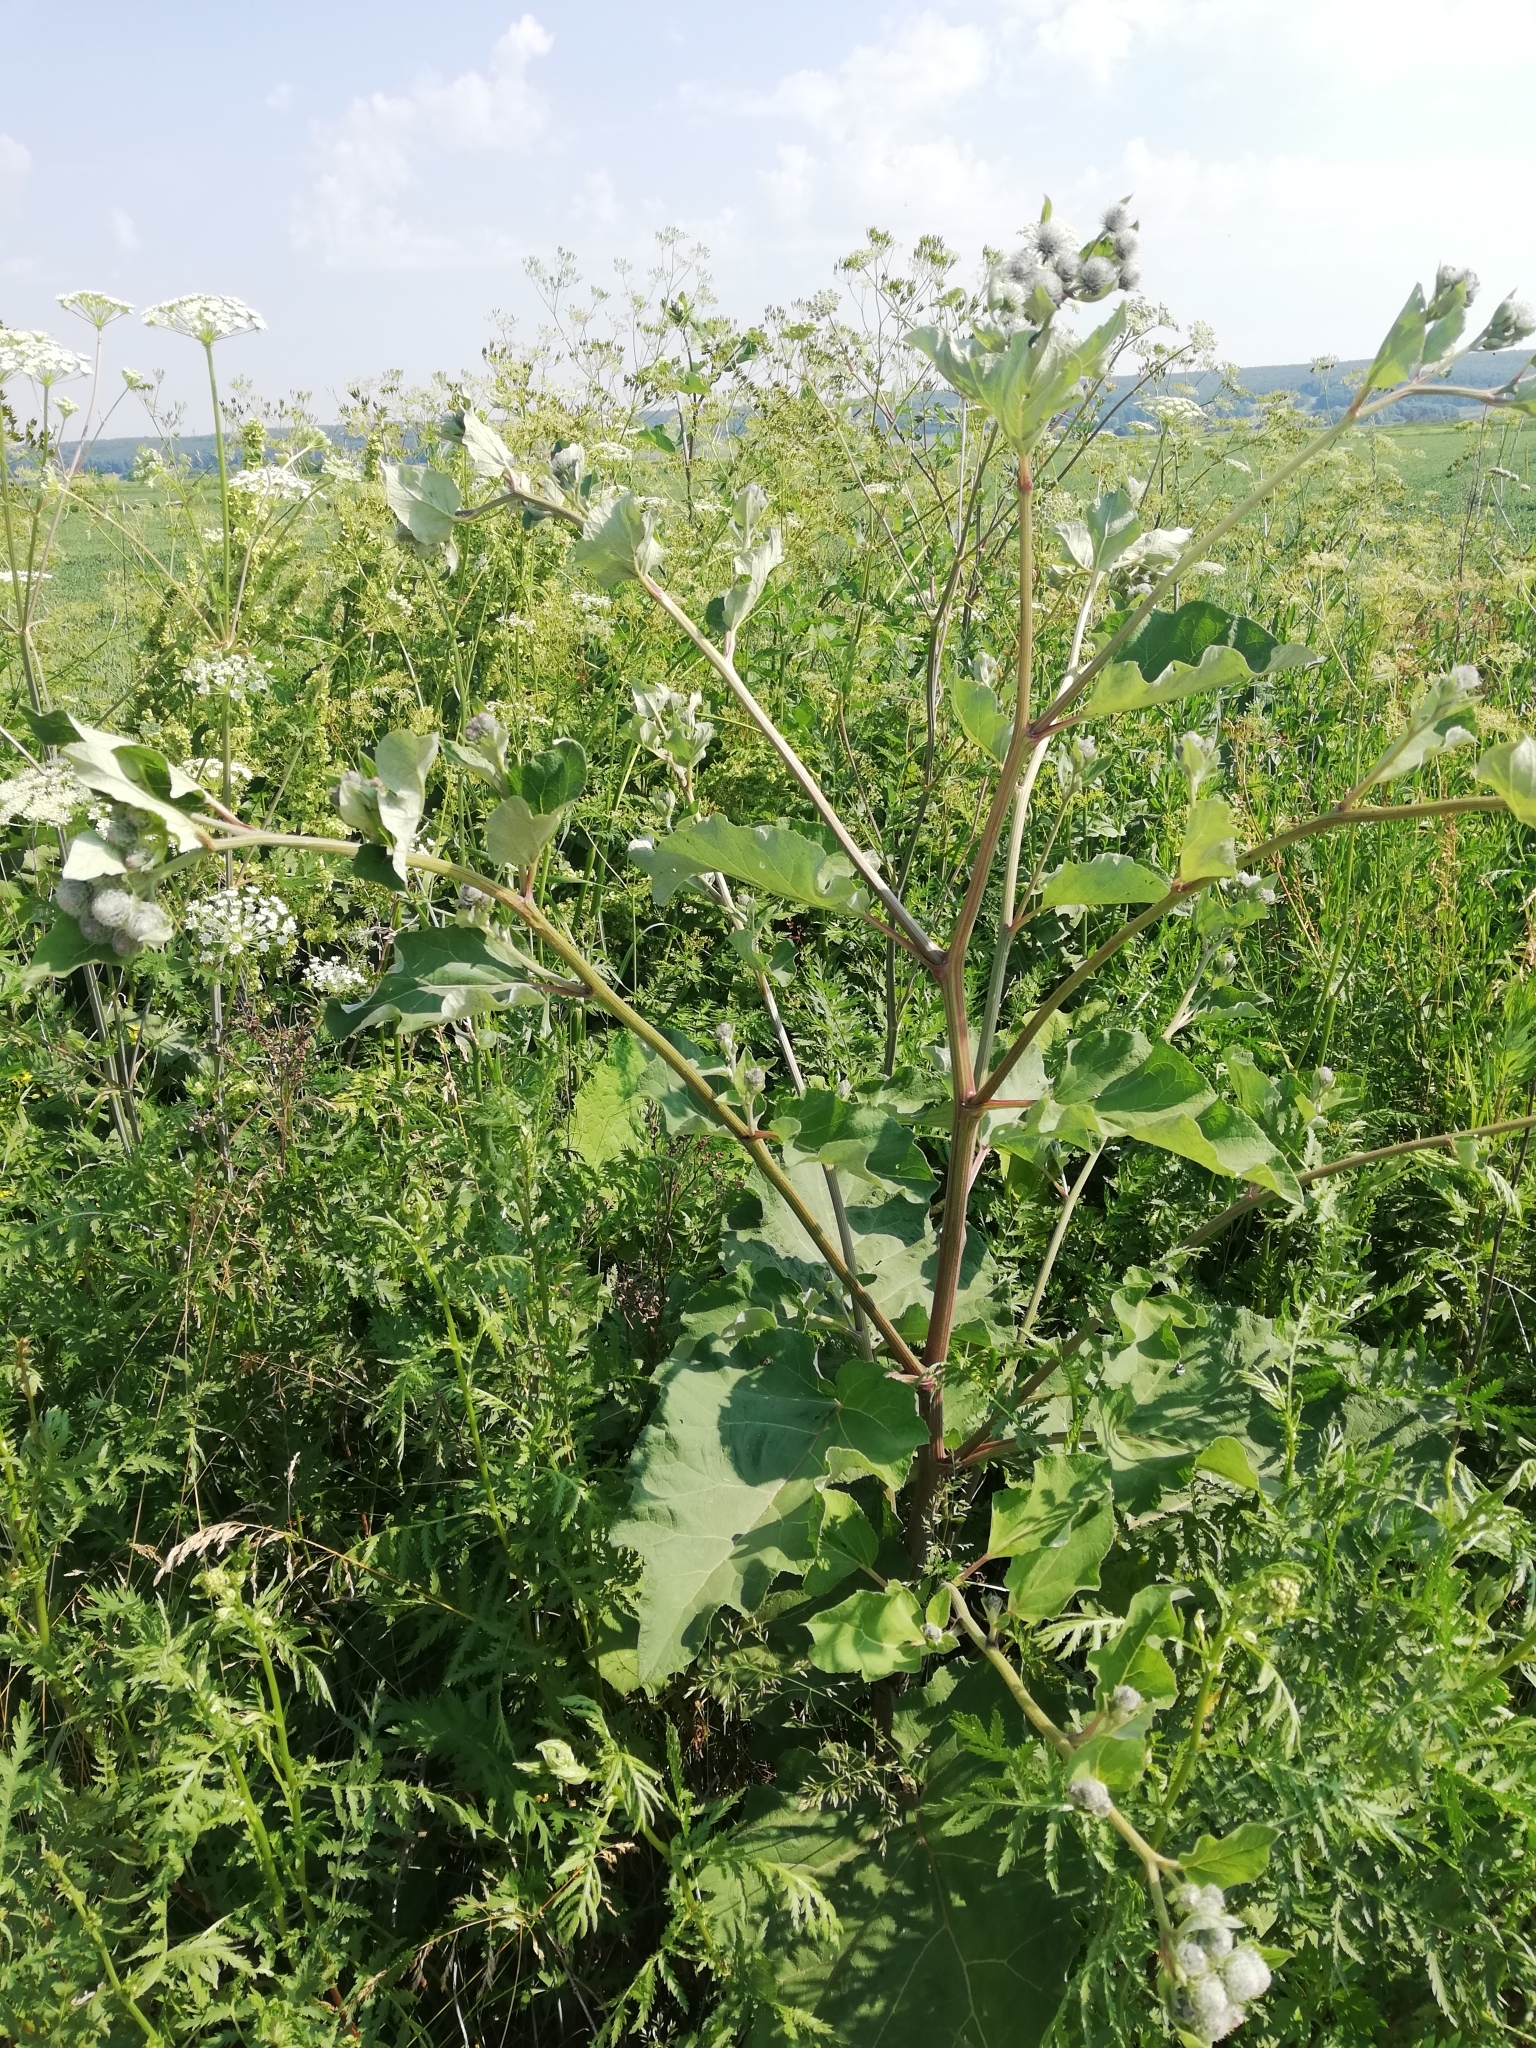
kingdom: Plantae
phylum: Tracheophyta
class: Magnoliopsida
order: Asterales
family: Asteraceae
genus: Arctium
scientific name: Arctium tomentosum
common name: Woolly burdock
